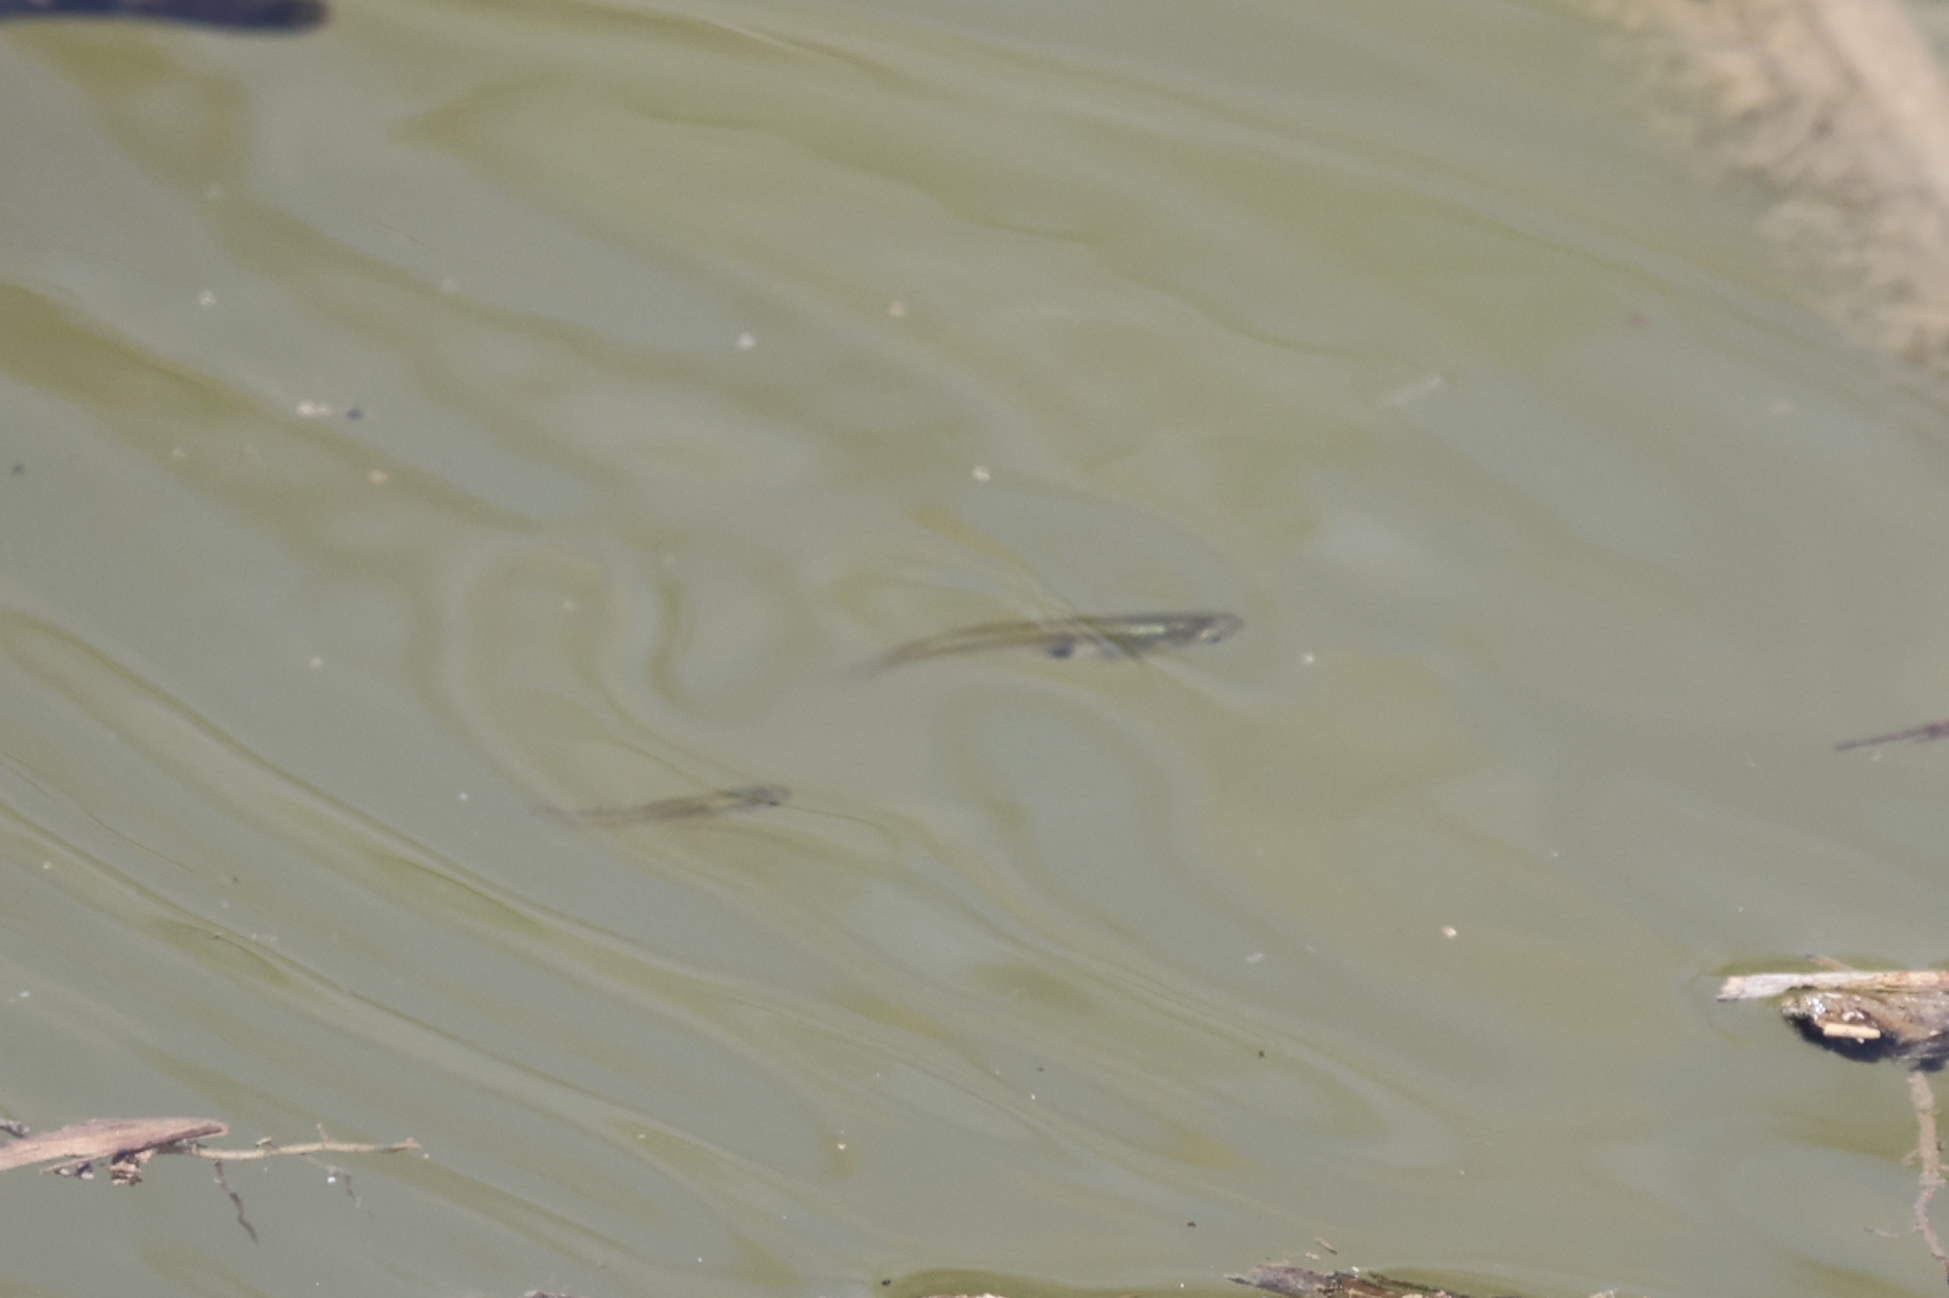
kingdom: Animalia
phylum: Chordata
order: Cyprinodontiformes
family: Poeciliidae
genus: Gambusia
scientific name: Gambusia holbrooki
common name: Eastern mosquitofish
